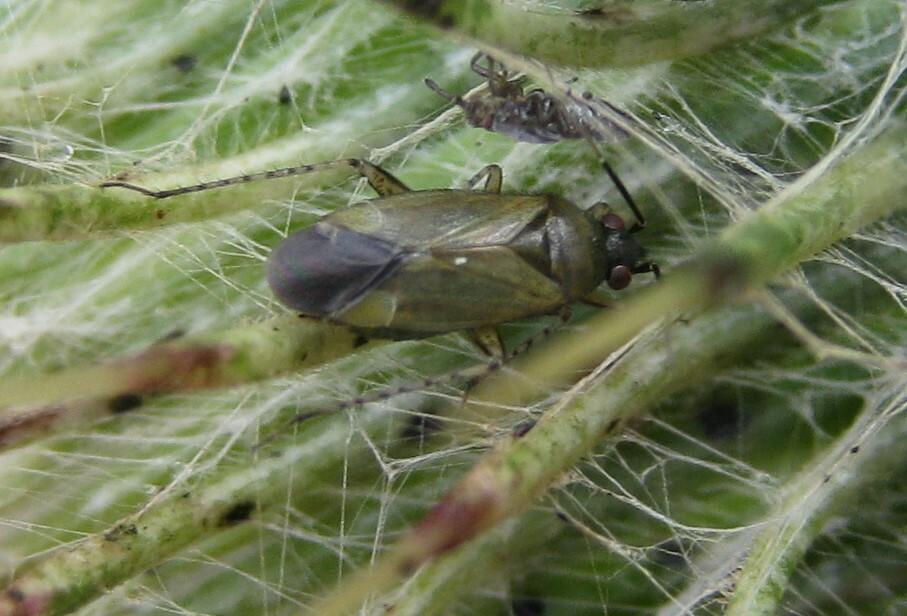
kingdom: Animalia
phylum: Arthropoda
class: Insecta
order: Hemiptera
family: Miridae
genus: Plagiognathus
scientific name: Plagiognathus arbustorum
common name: Plant bug
